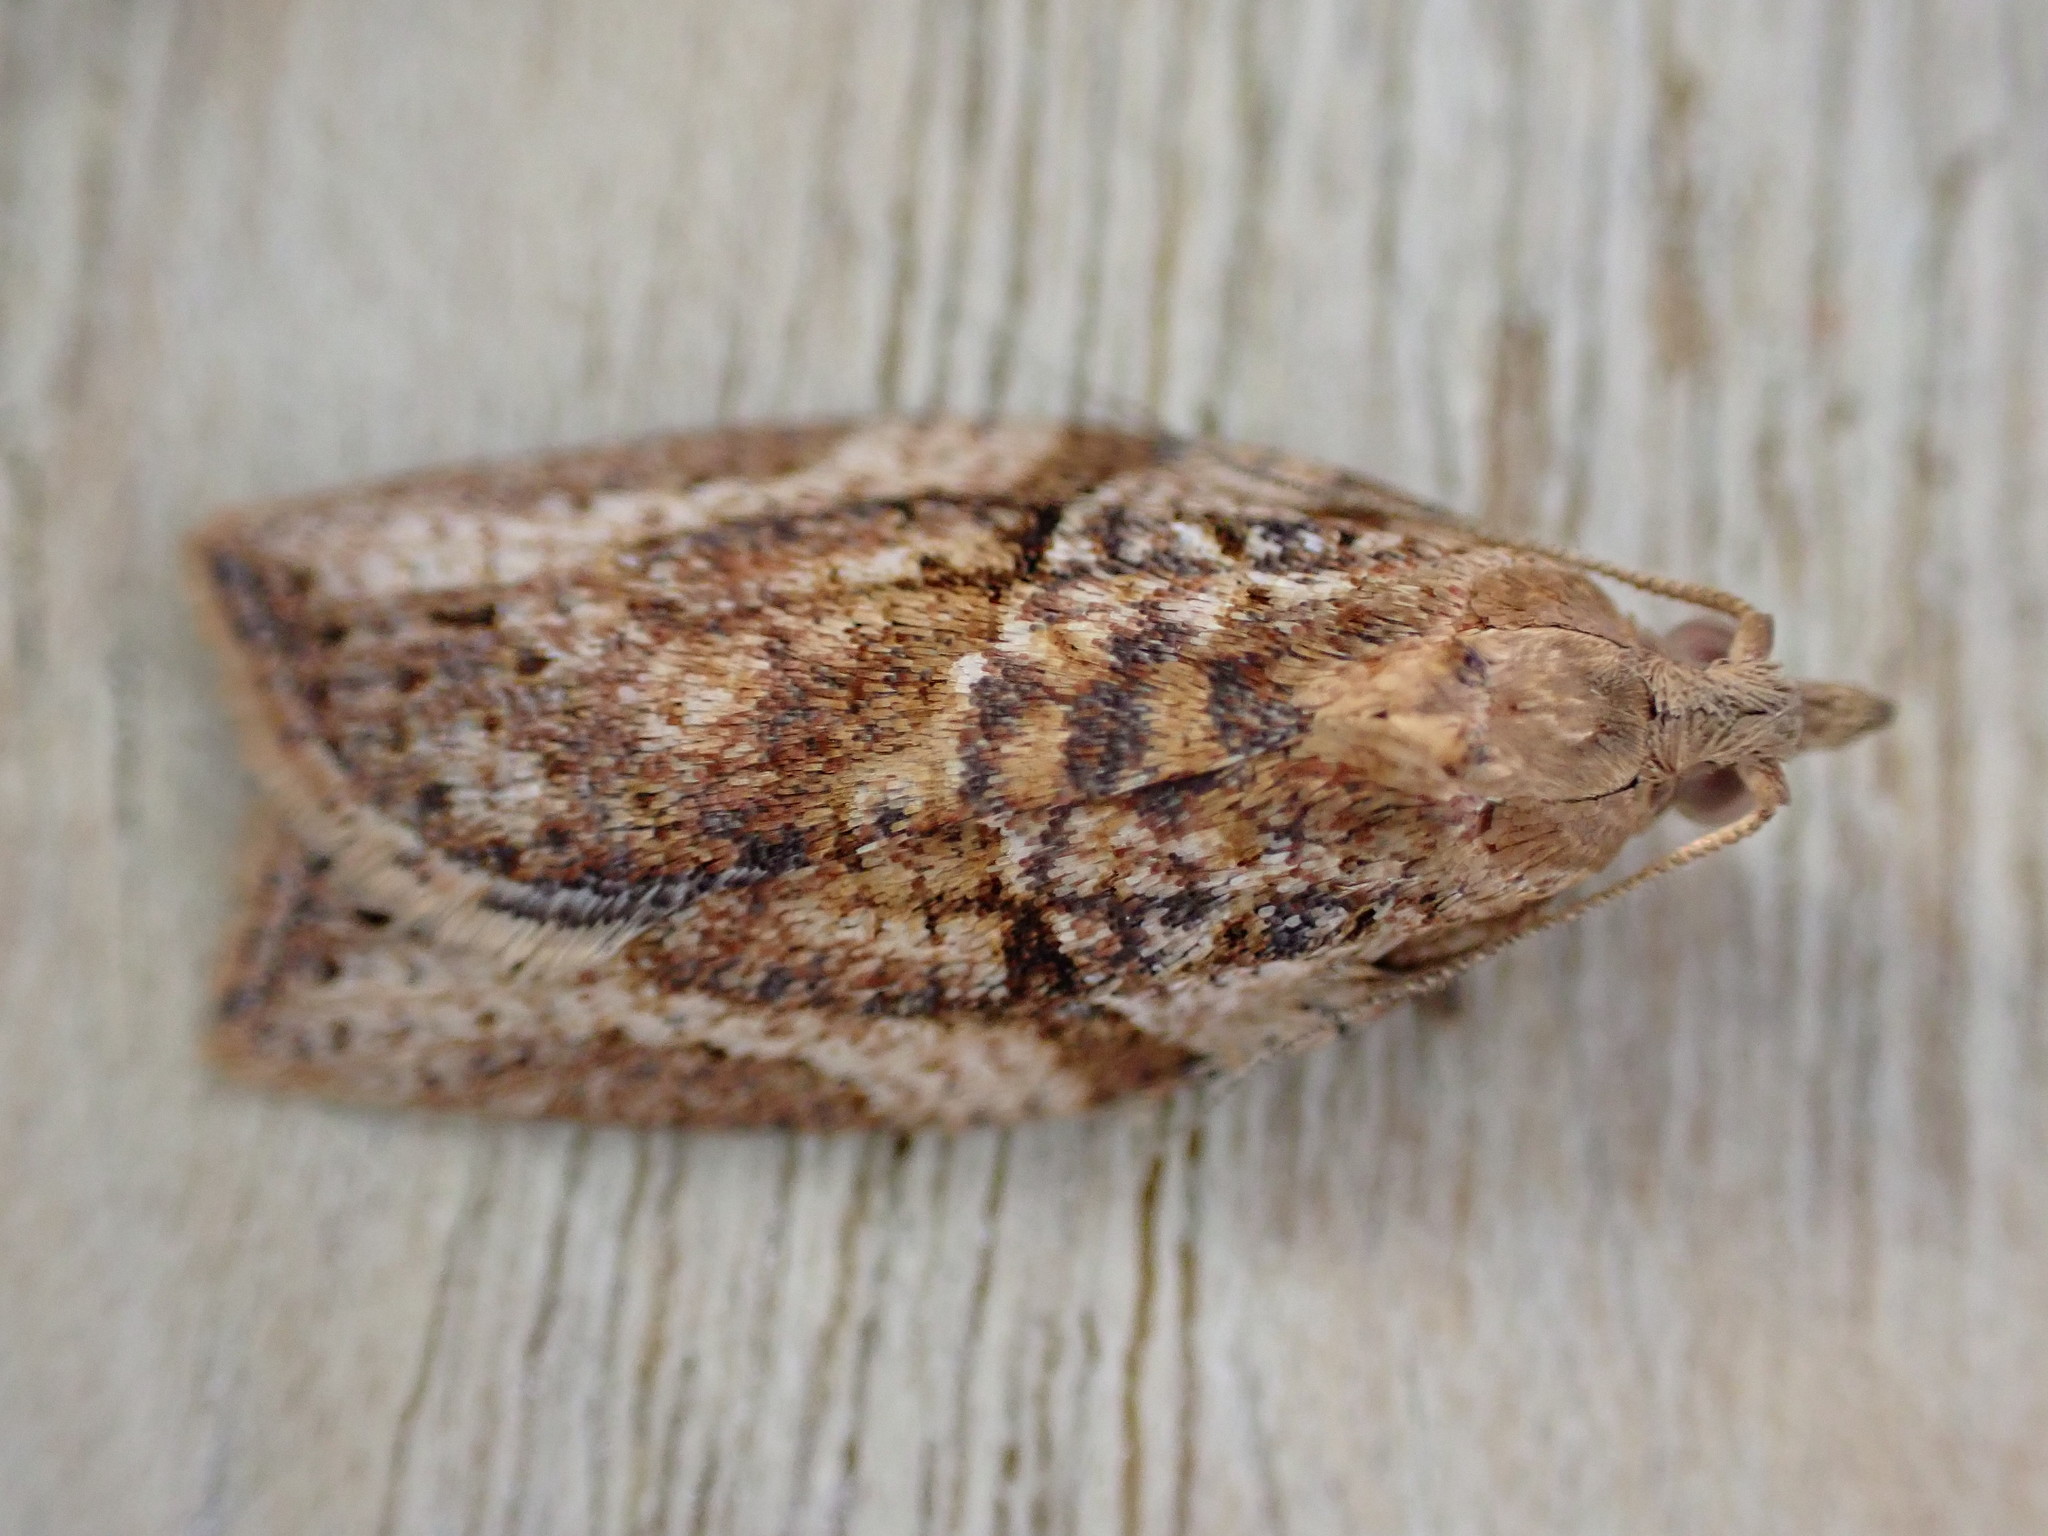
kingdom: Animalia
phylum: Arthropoda
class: Insecta
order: Lepidoptera
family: Tortricidae
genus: Epiphyas
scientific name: Epiphyas postvittana
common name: Light brown apple moth
